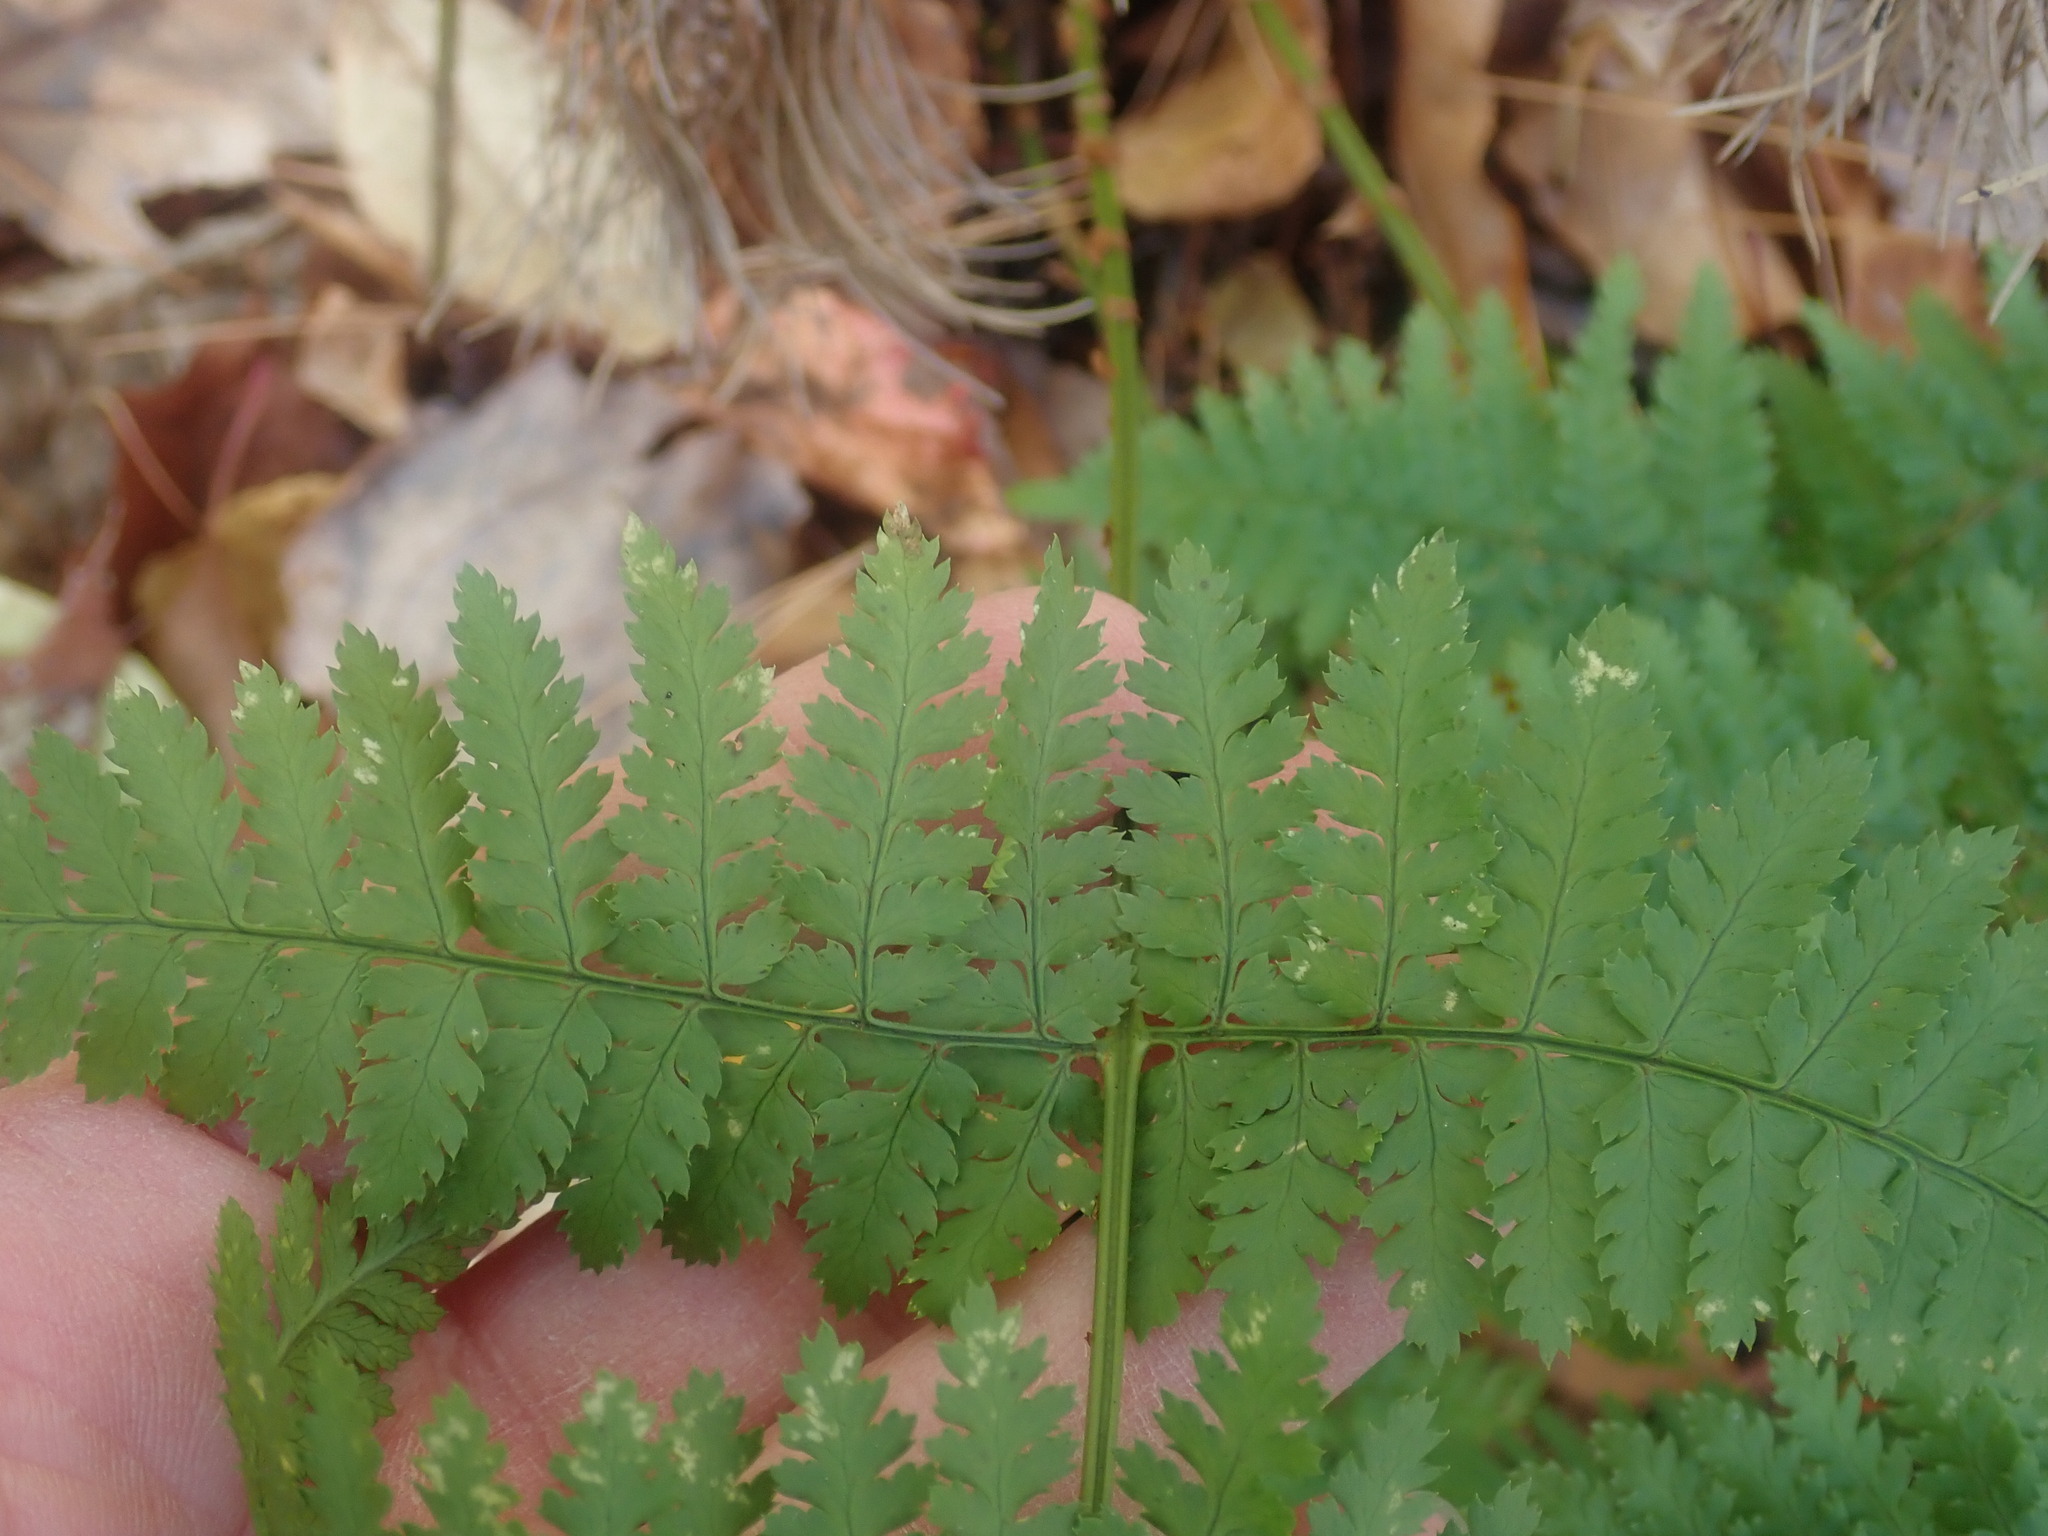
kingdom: Plantae
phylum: Tracheophyta
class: Polypodiopsida
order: Polypodiales
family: Dryopteridaceae
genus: Dryopteris
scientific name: Dryopteris intermedia
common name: Evergreen wood fern
